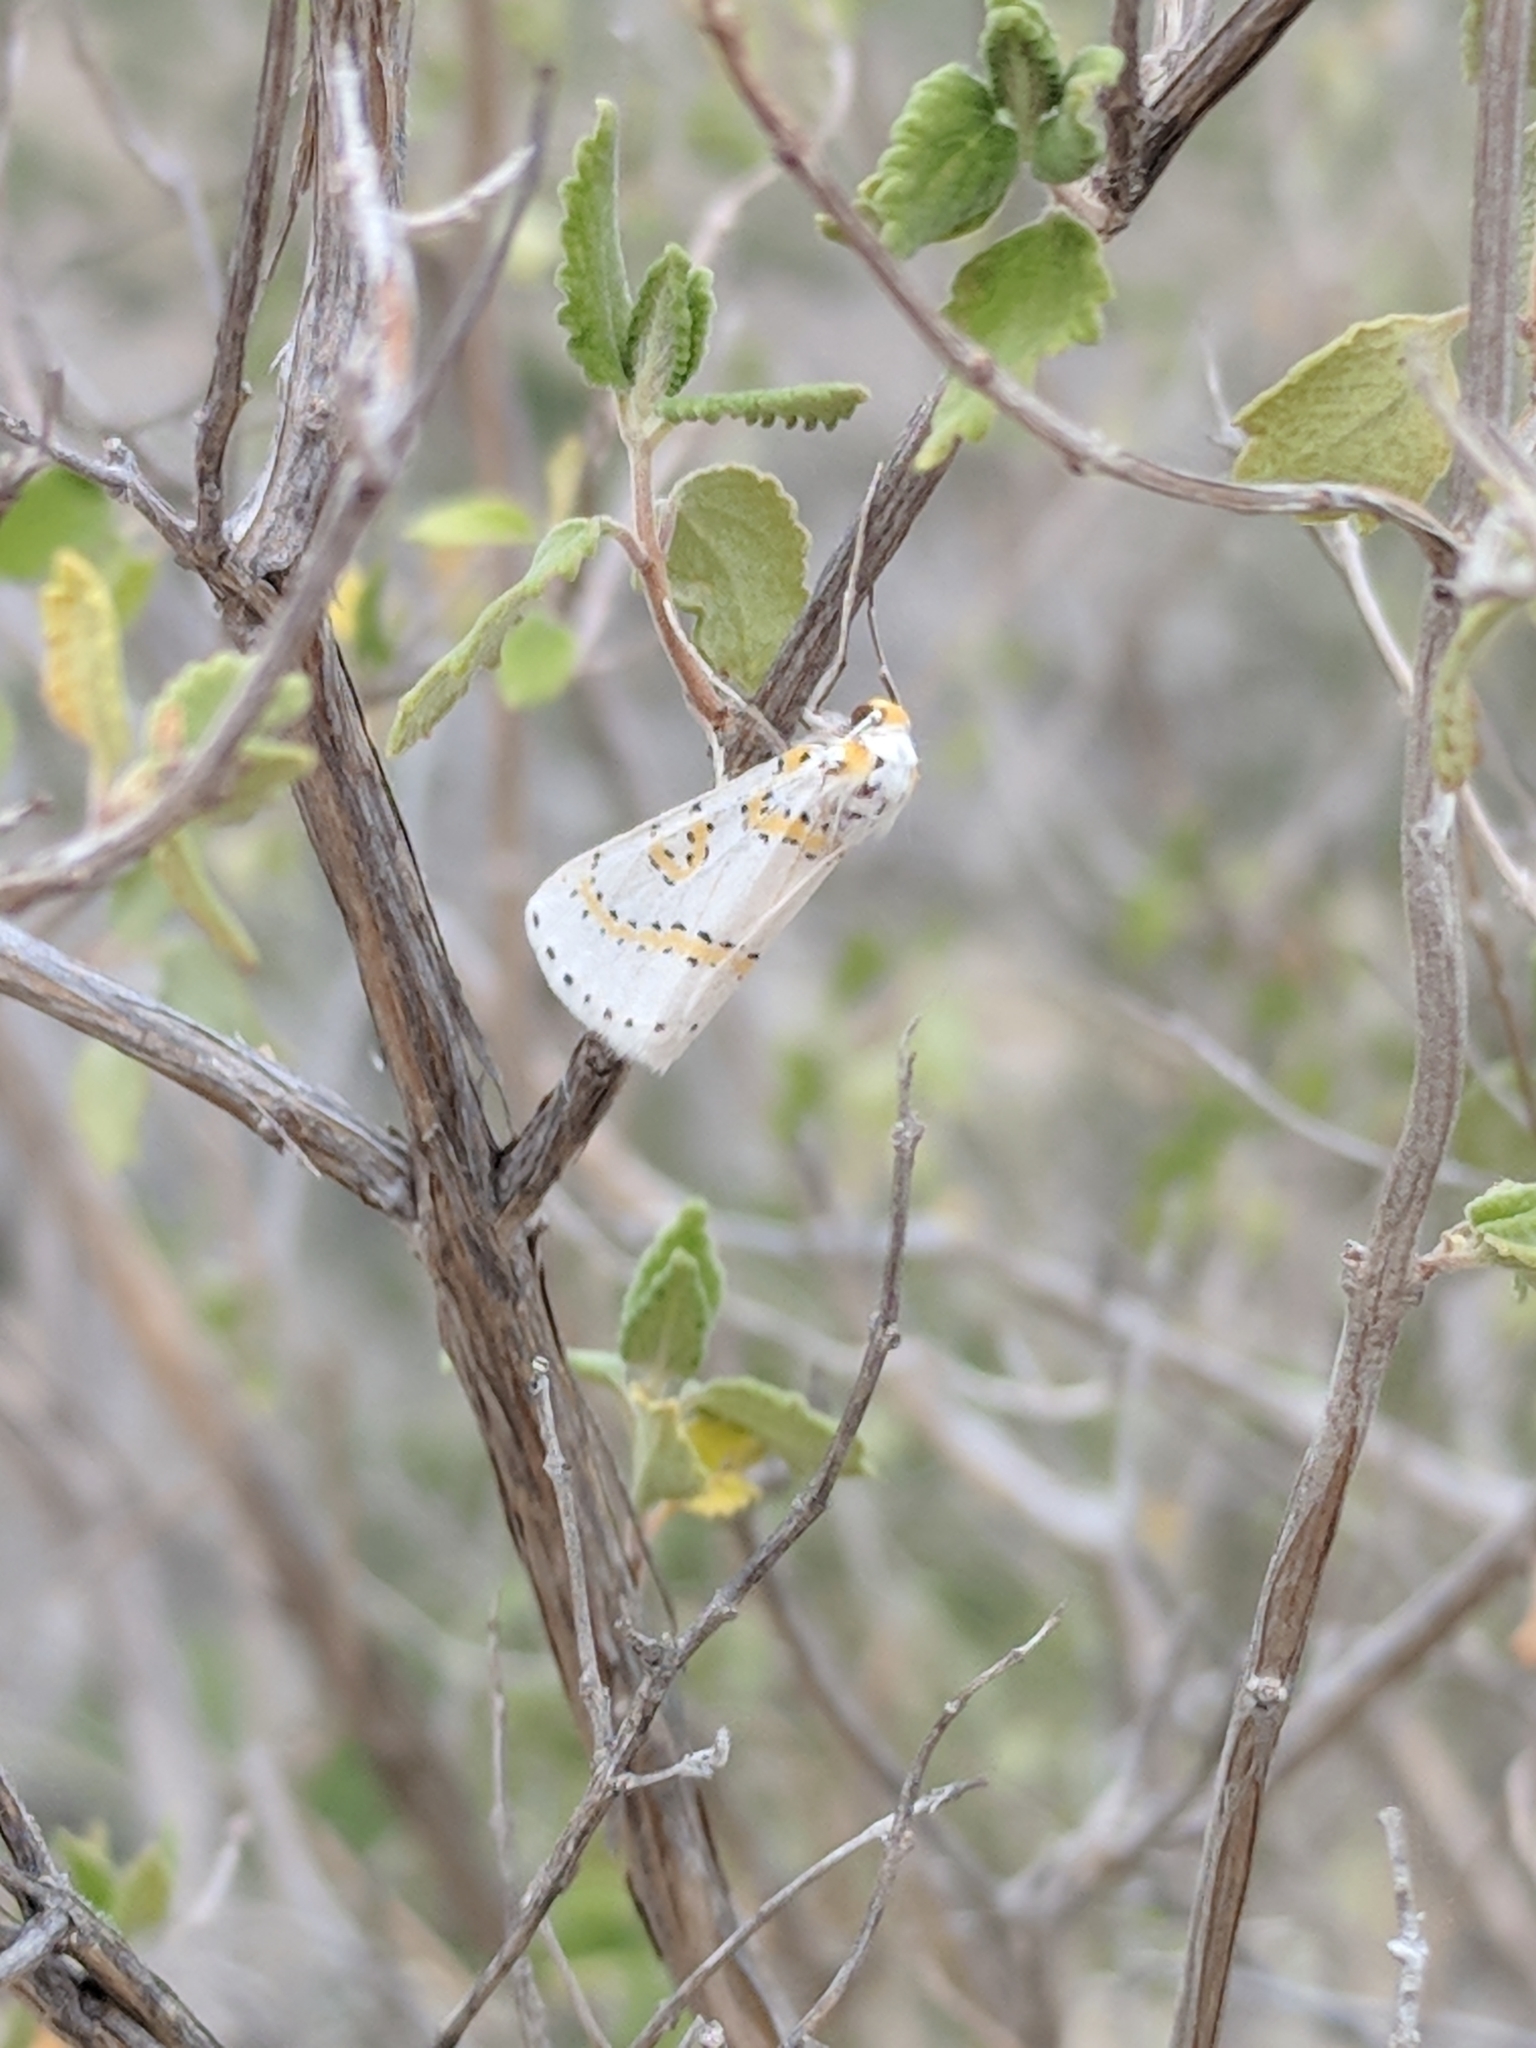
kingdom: Animalia
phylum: Arthropoda
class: Insecta
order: Lepidoptera
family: Geometridae
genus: Philtraea
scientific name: Philtraea paucimacula
